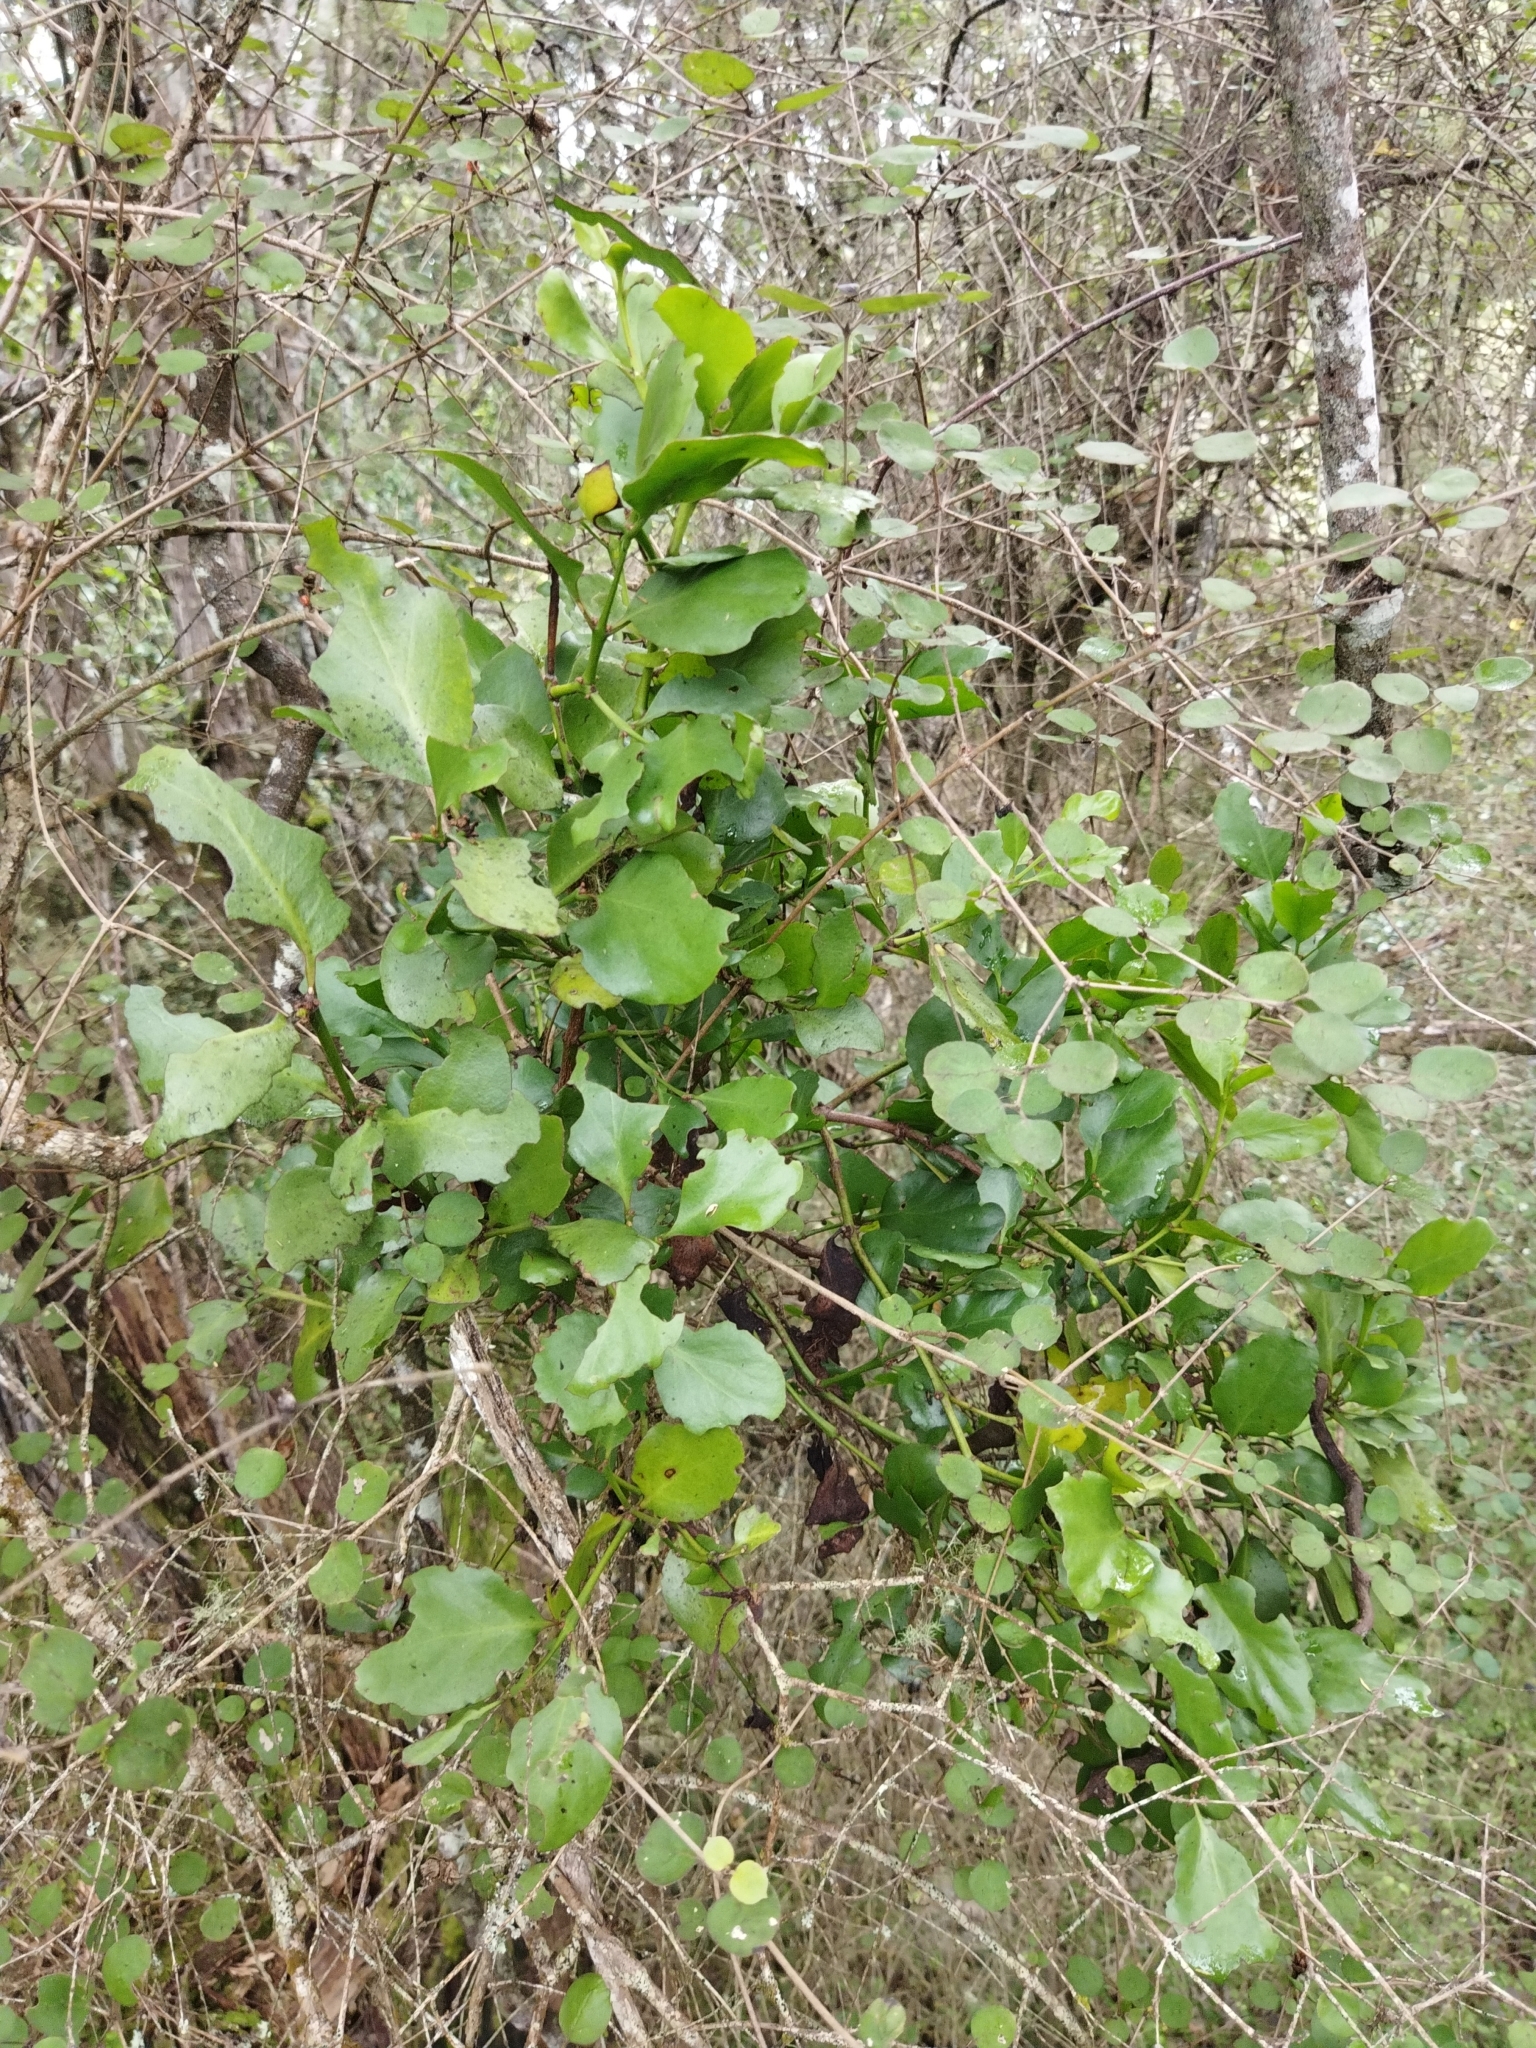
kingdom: Plantae
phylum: Tracheophyta
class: Magnoliopsida
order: Santalales
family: Loranthaceae
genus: Ileostylus
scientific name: Ileostylus micranthus
